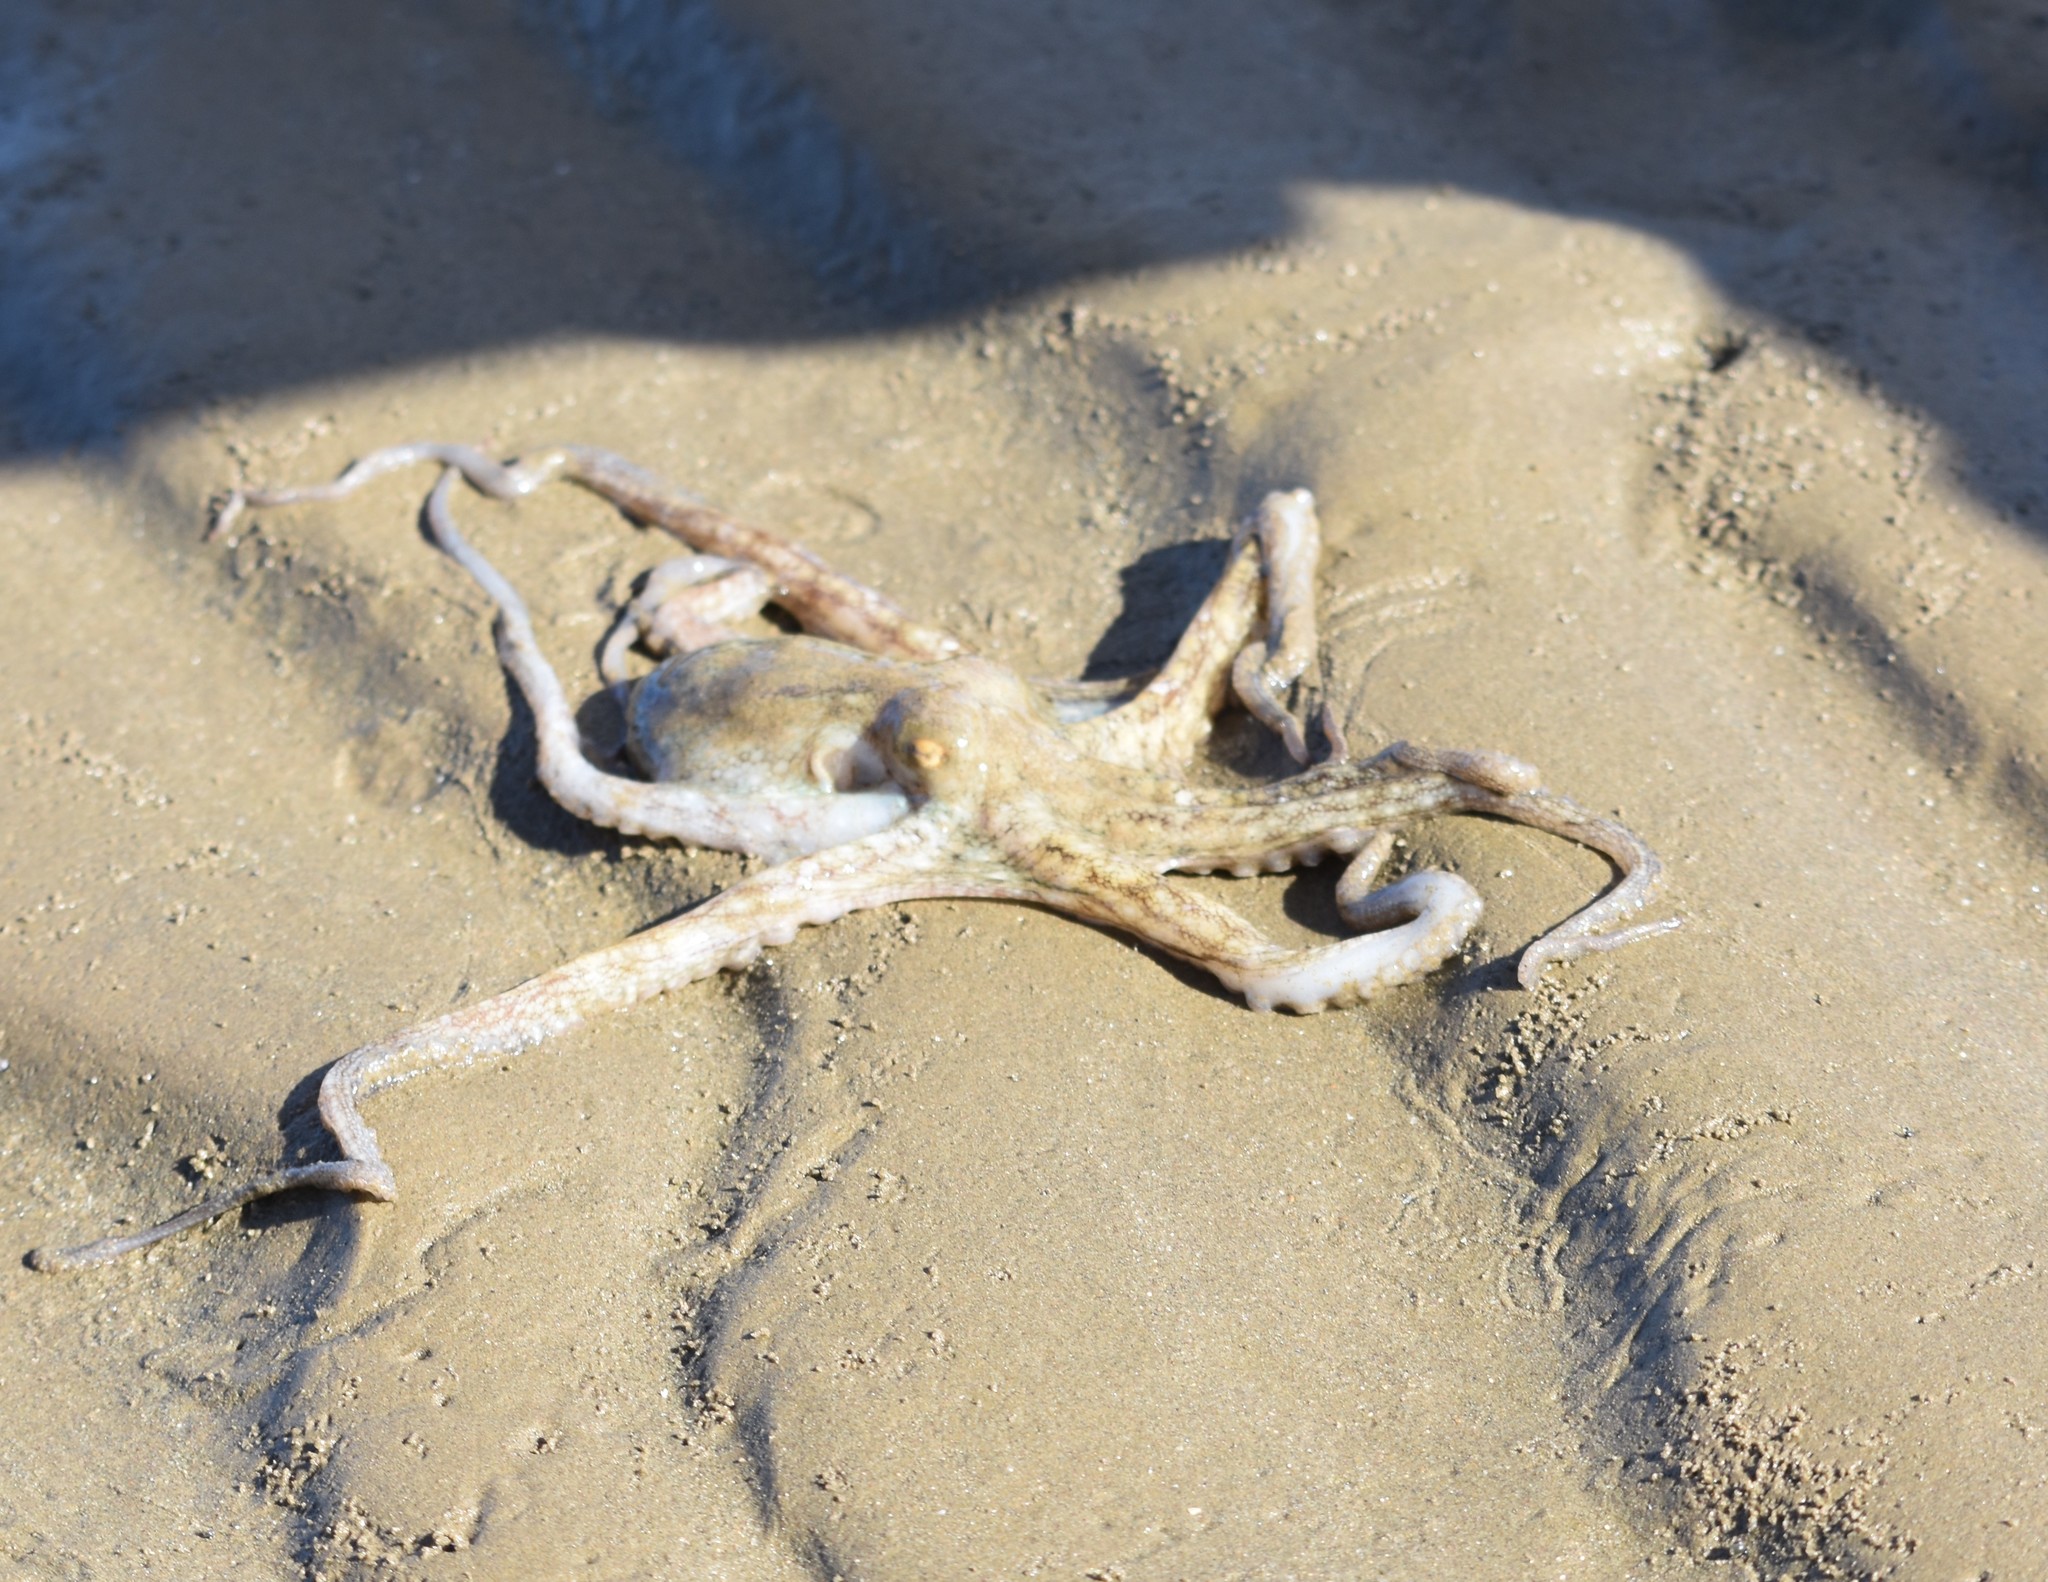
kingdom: Animalia
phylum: Mollusca
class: Cephalopoda
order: Octopoda
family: Octopodidae
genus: Octopus
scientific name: Octopus vulgaris
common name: Common octopus
